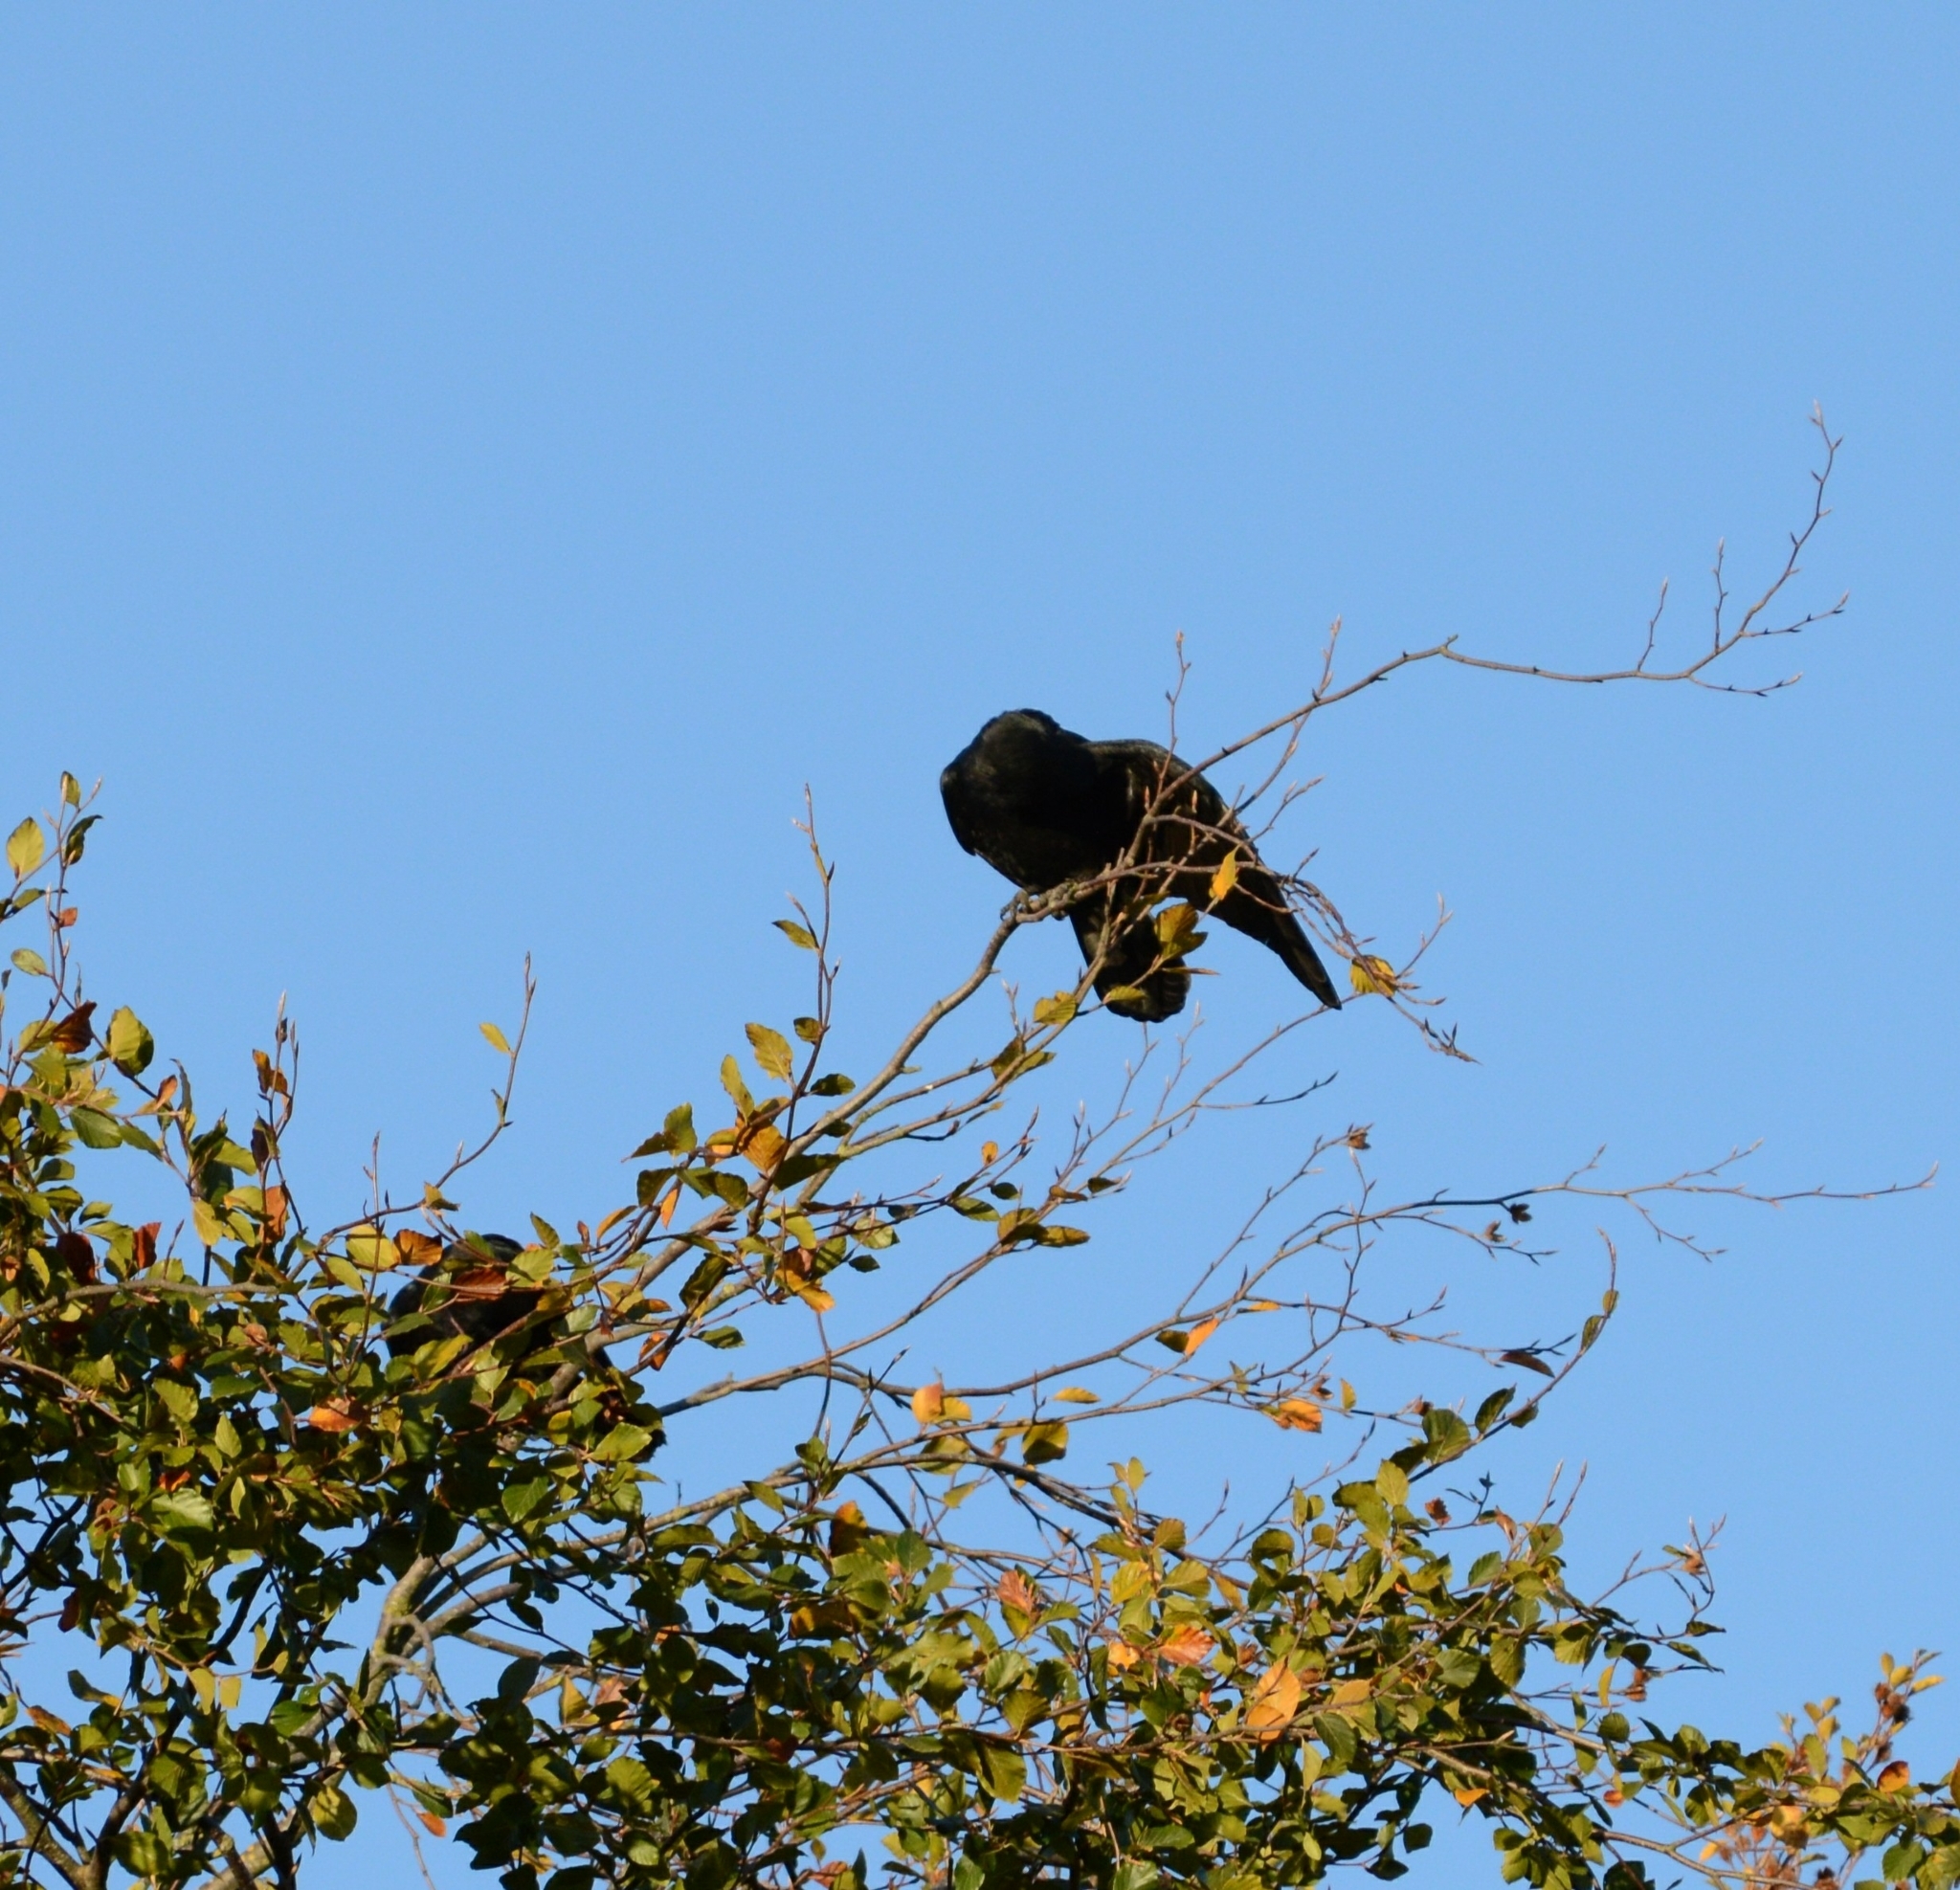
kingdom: Animalia
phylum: Chordata
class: Aves
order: Passeriformes
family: Corvidae
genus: Corvus
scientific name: Corvus corone
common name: Carrion crow
